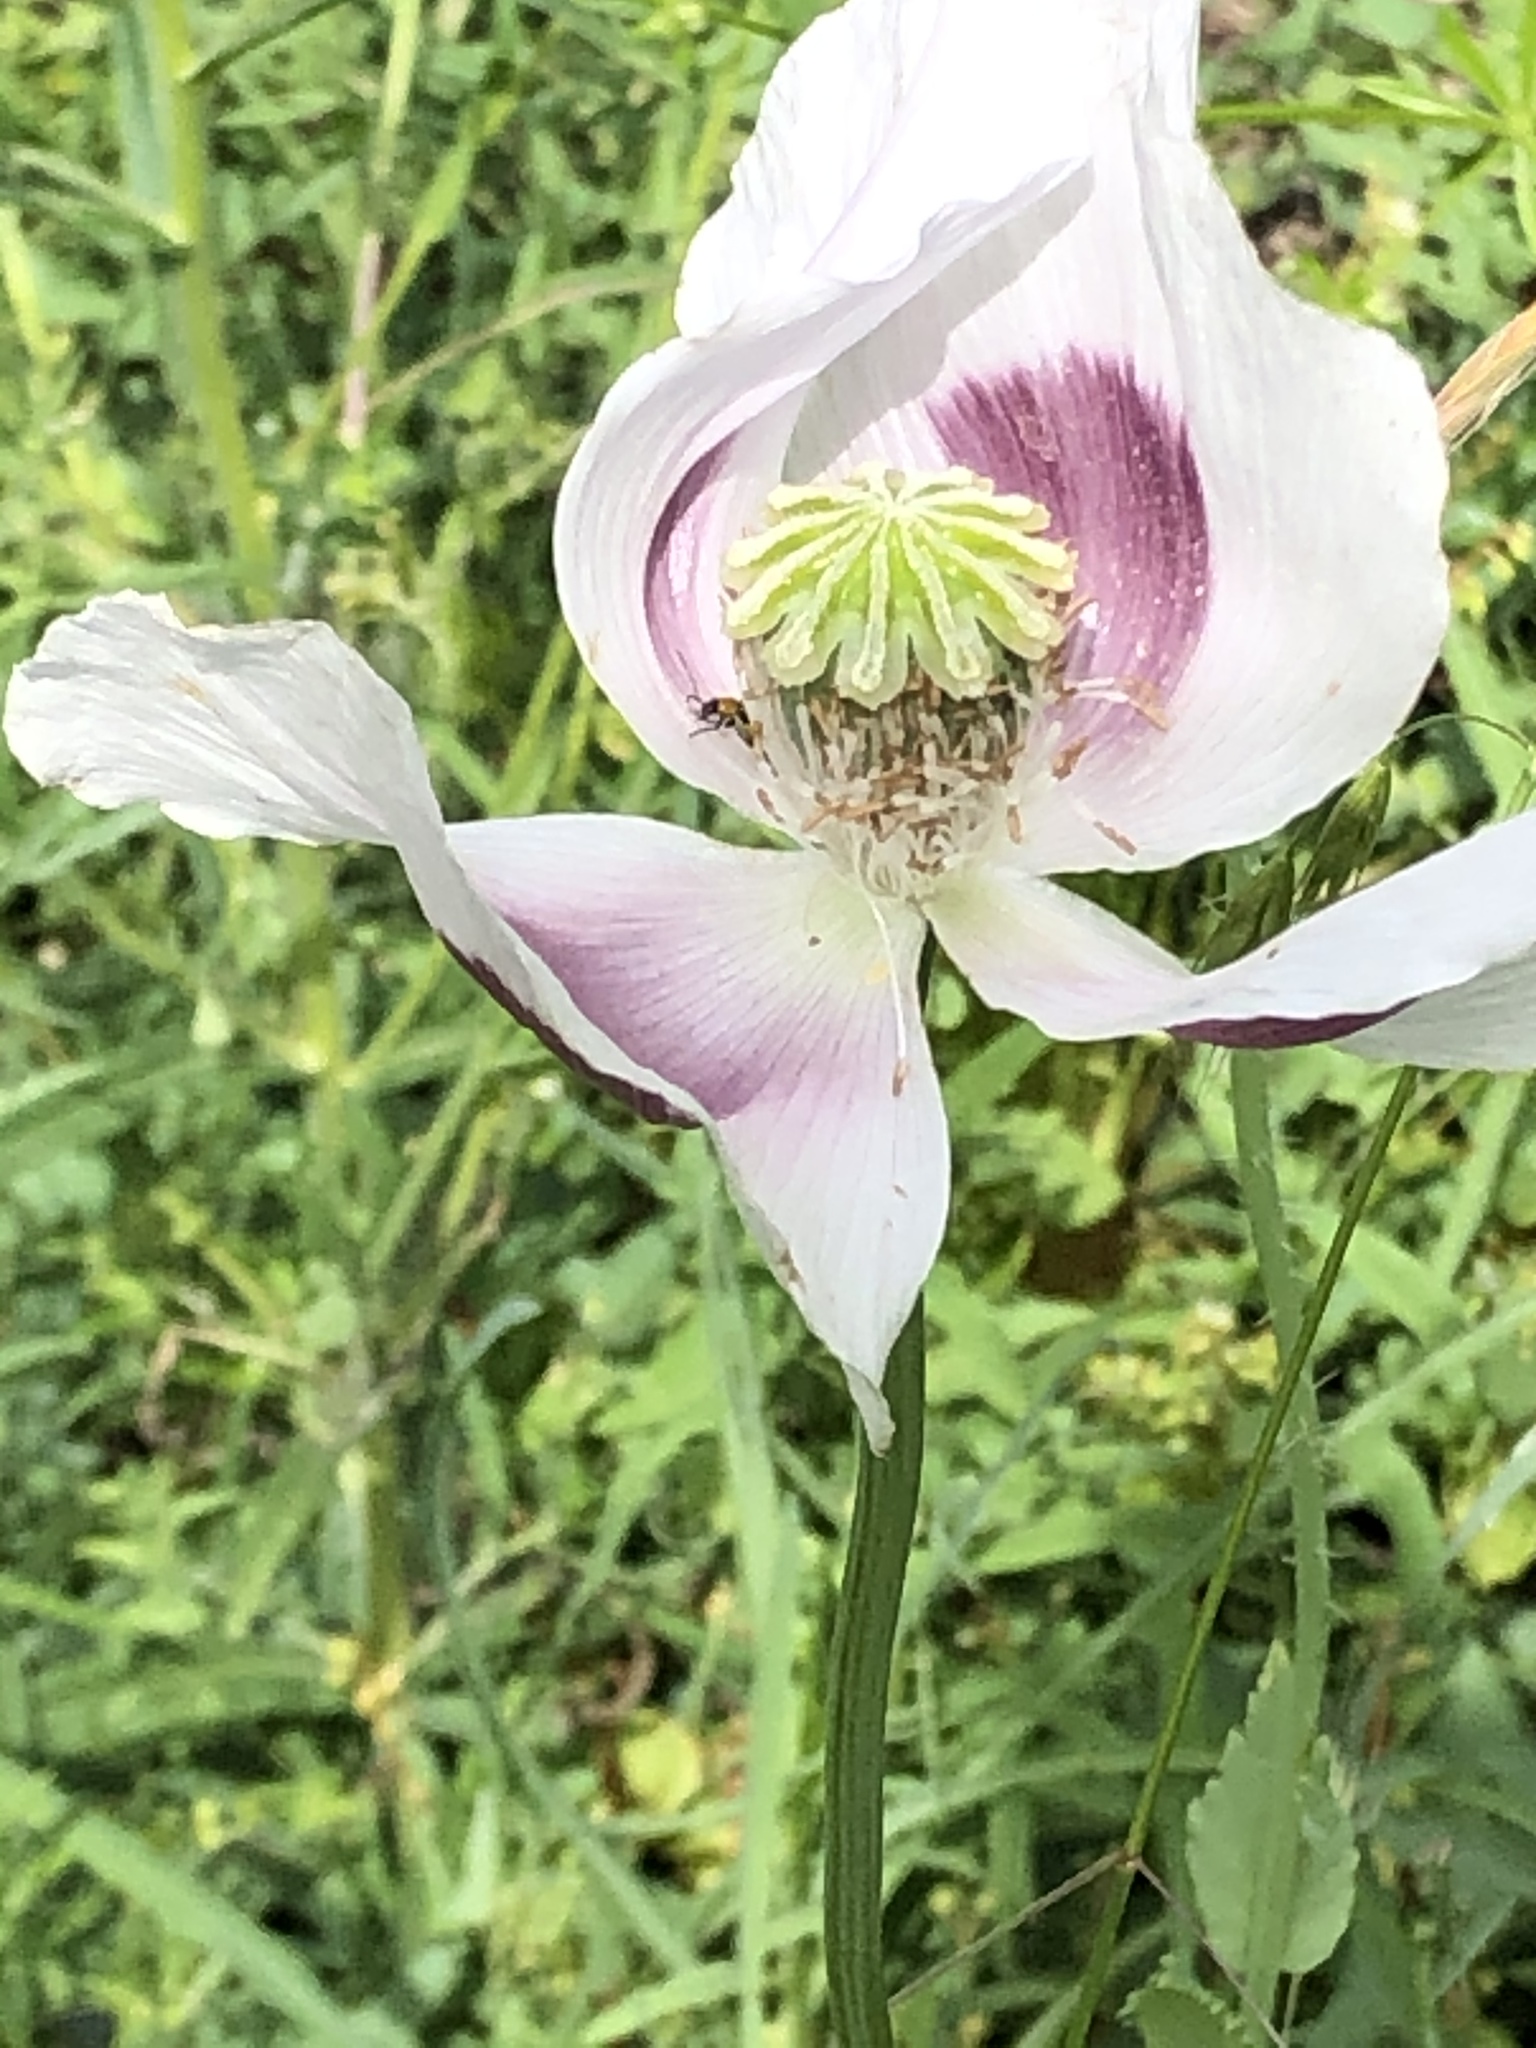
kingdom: Plantae
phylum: Tracheophyta
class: Magnoliopsida
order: Ranunculales
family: Papaveraceae
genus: Papaver
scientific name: Papaver somniferum
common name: Opium poppy
